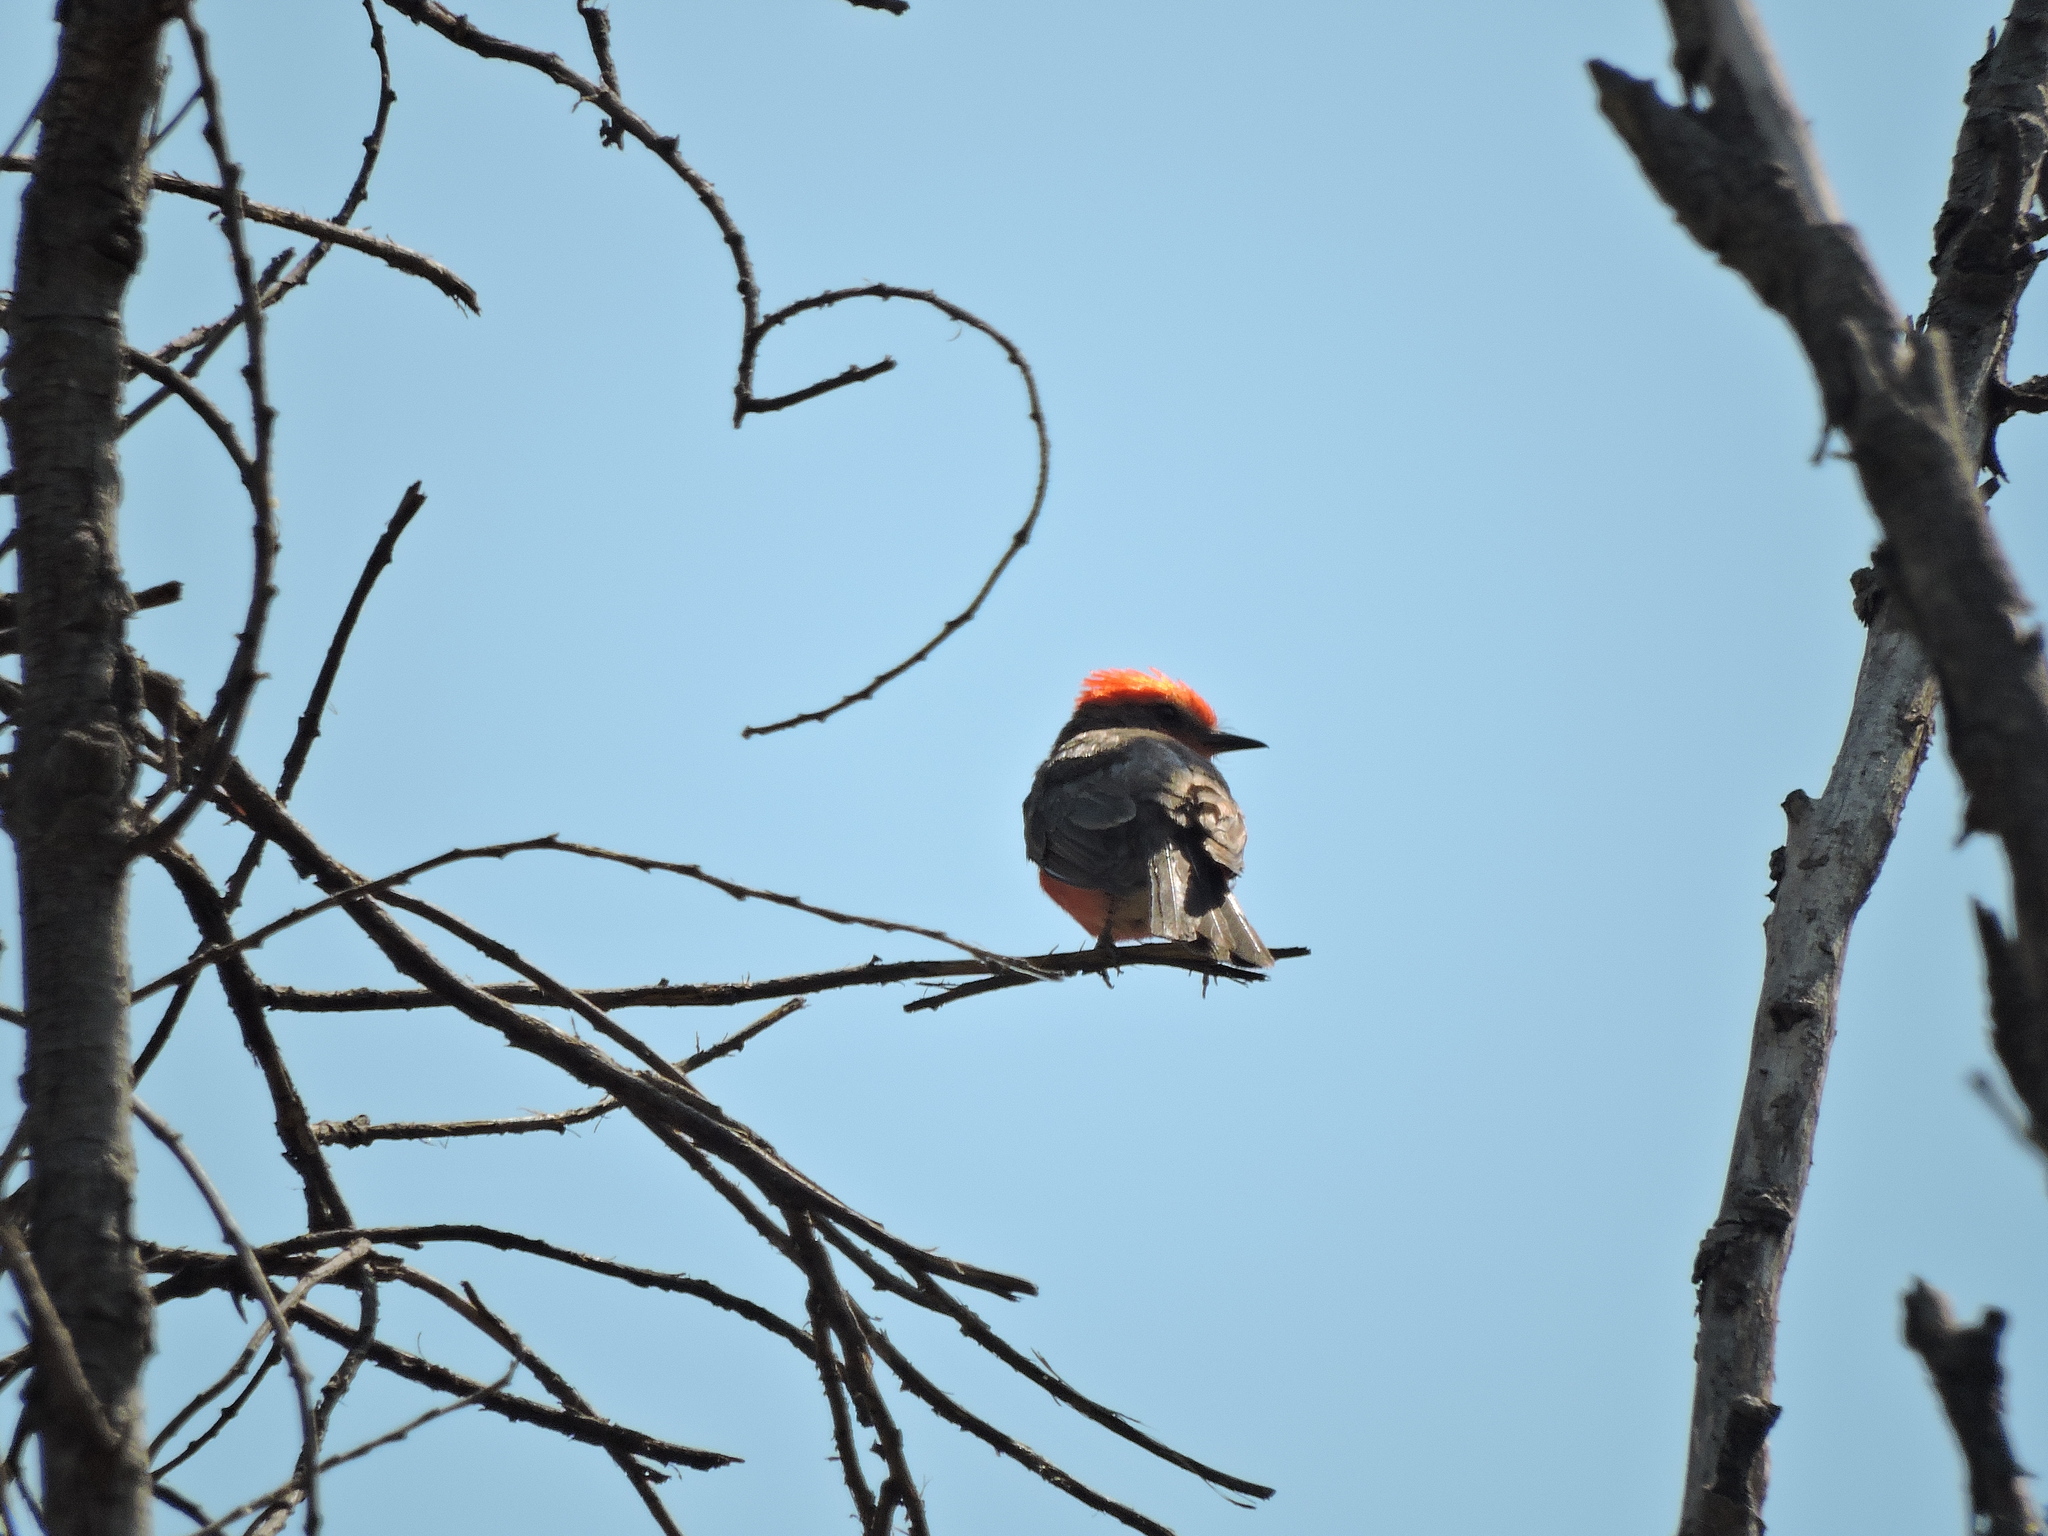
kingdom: Animalia
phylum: Chordata
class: Aves
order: Passeriformes
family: Tyrannidae
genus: Pyrocephalus
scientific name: Pyrocephalus rubinus
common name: Vermilion flycatcher
